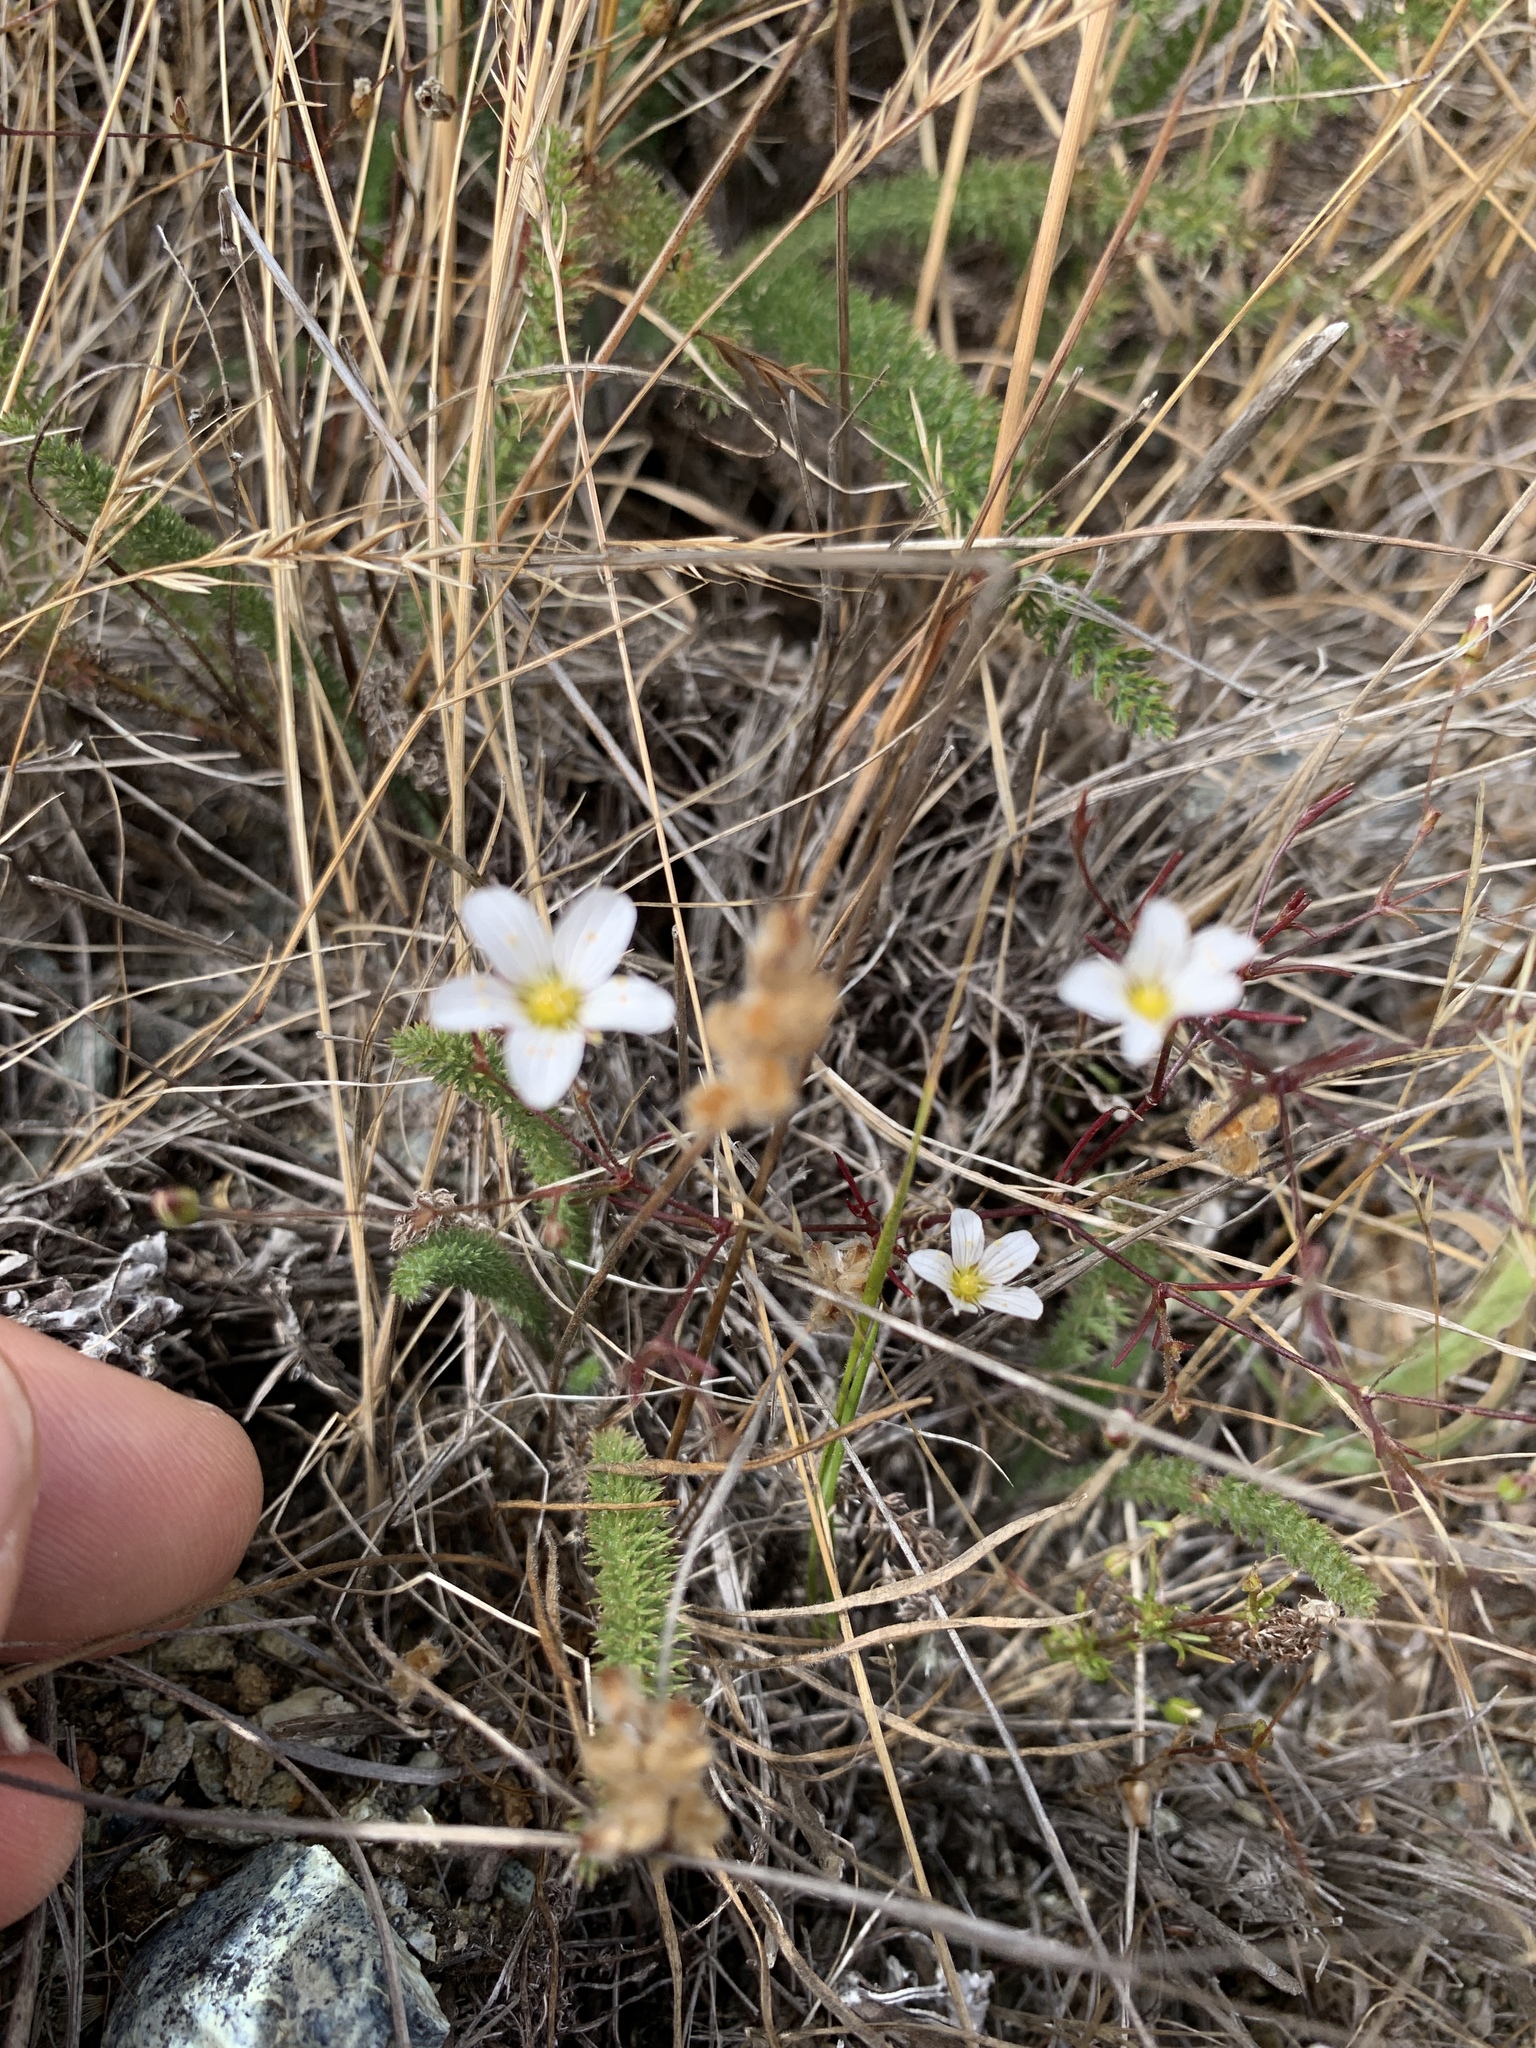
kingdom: Plantae
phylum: Tracheophyta
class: Magnoliopsida
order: Caryophyllales
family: Caryophyllaceae
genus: Sabulina
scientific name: Sabulina douglasii
